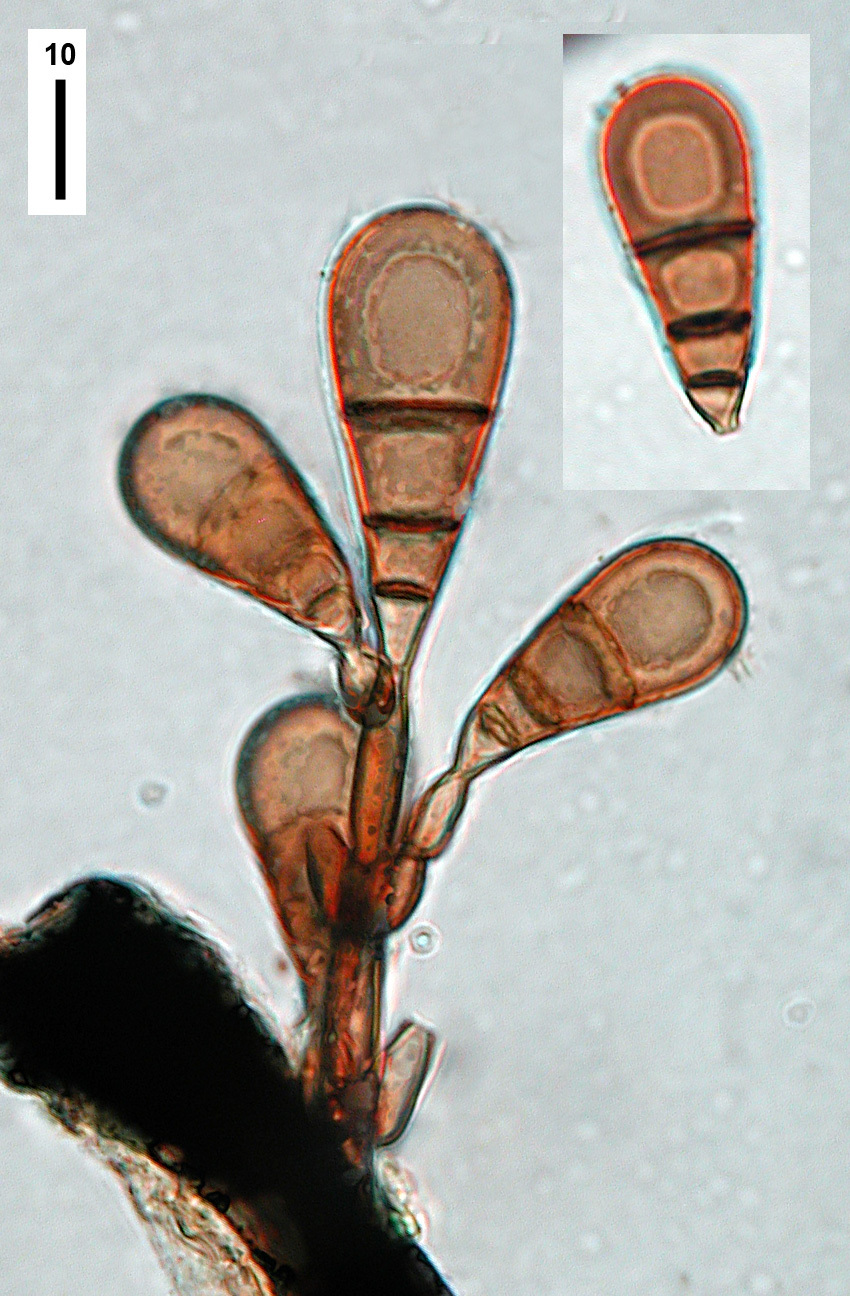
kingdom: Fungi
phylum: Ascomycota
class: Sordariomycetes
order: Sordariales
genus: Brachysporiella
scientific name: Brachysporiella pulchra
